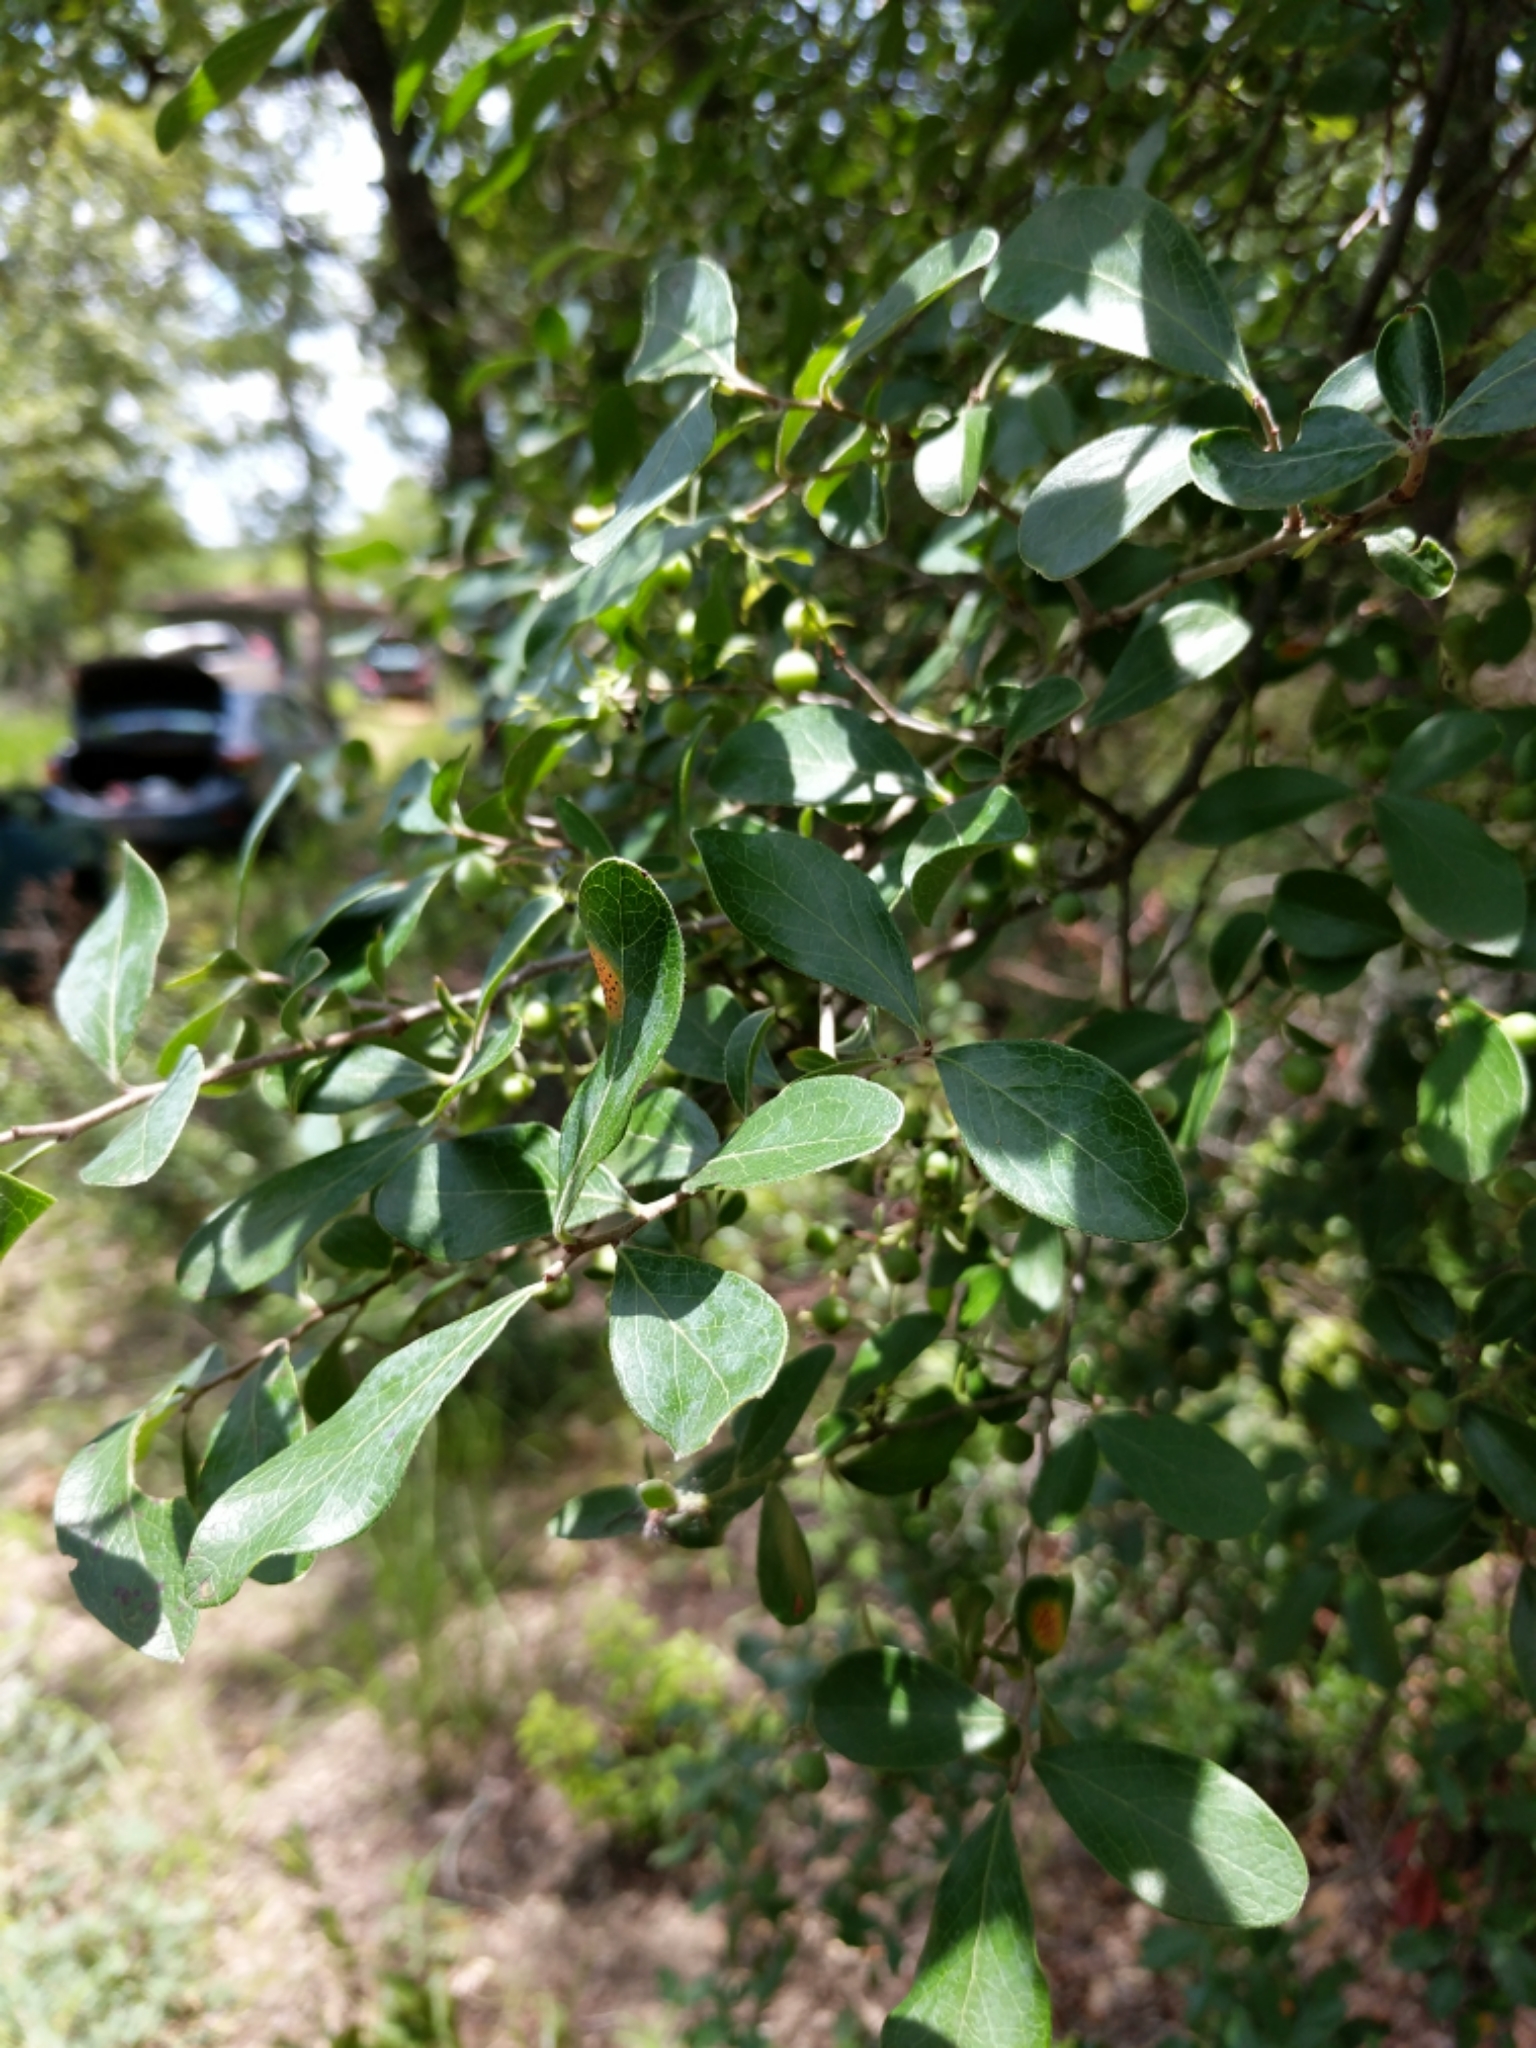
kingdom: Plantae
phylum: Tracheophyta
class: Magnoliopsida
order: Ericales
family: Ericaceae
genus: Vaccinium
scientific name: Vaccinium arboreum
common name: Farkleberry
